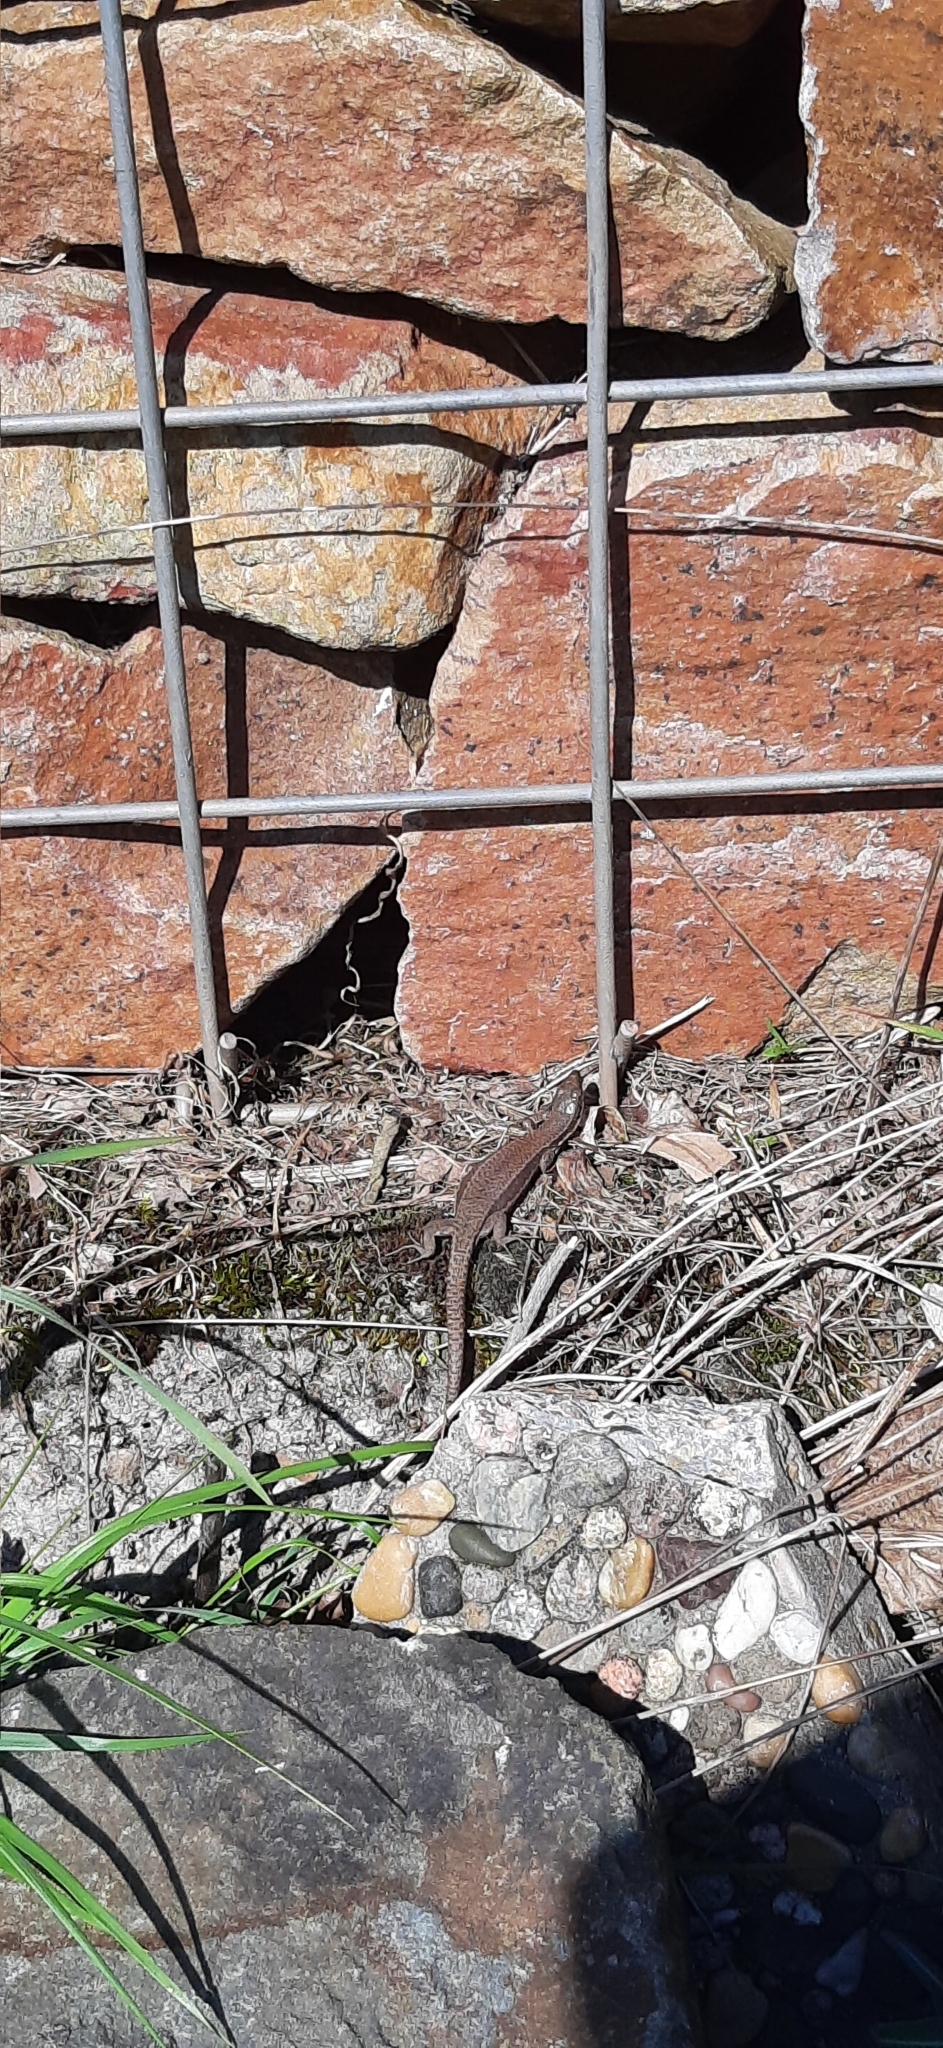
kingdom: Animalia
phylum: Chordata
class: Squamata
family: Lacertidae
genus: Podarcis
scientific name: Podarcis muralis
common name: Common wall lizard
